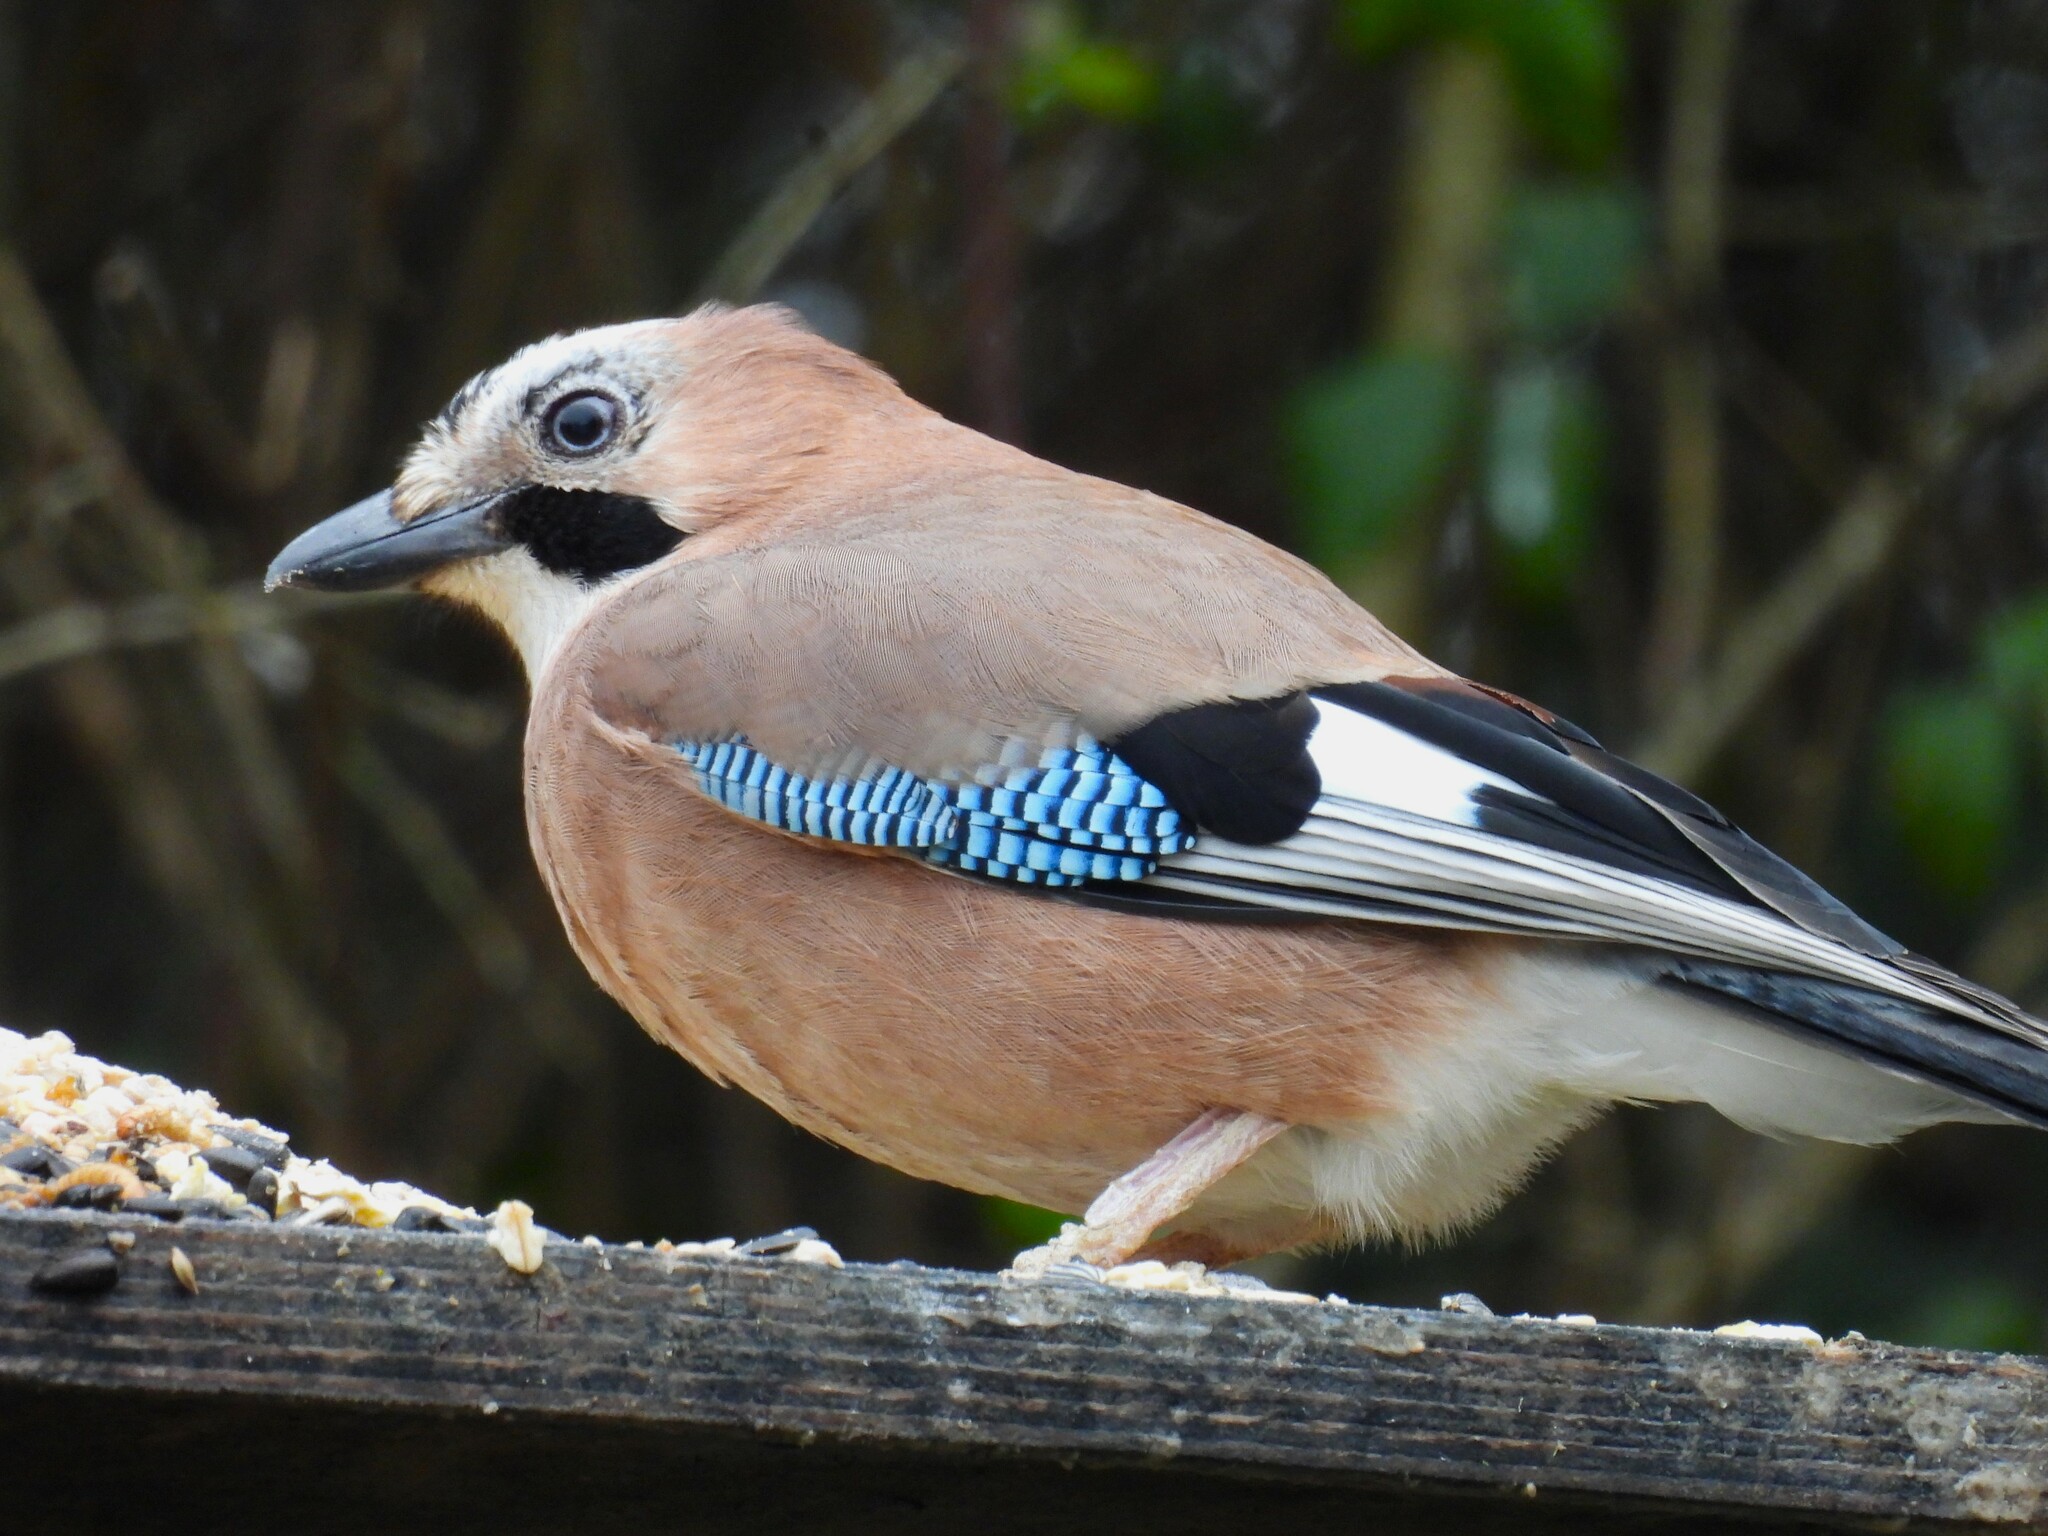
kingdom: Animalia
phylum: Chordata
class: Aves
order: Passeriformes
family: Corvidae
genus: Garrulus
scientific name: Garrulus glandarius
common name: Eurasian jay
